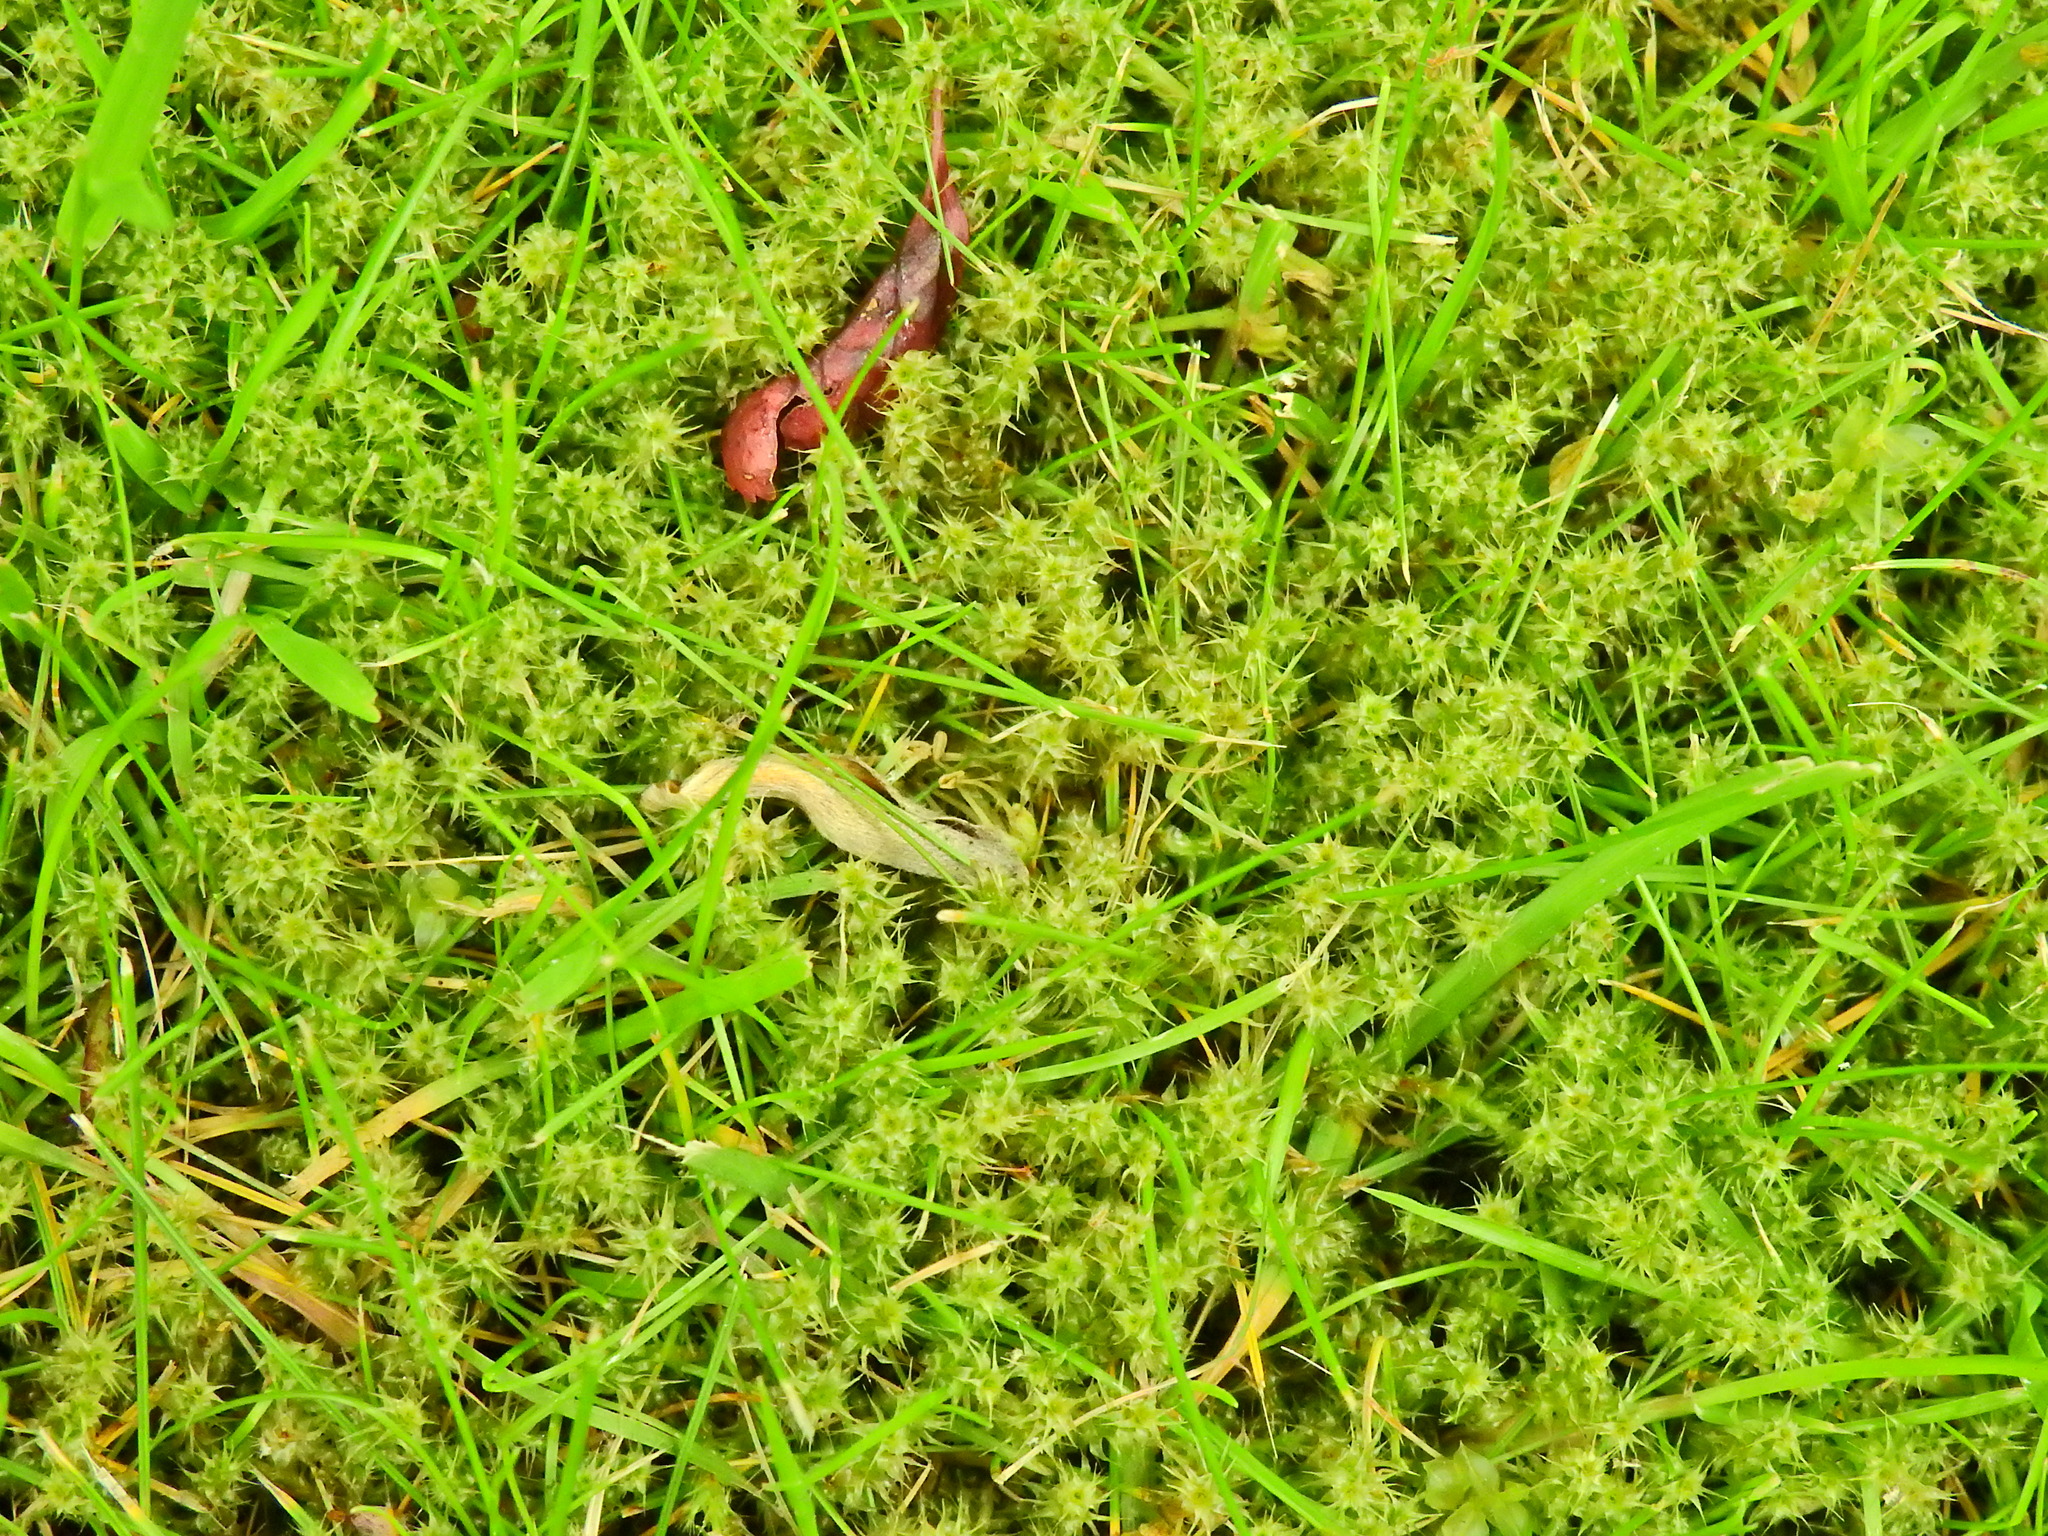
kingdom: Plantae
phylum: Bryophyta
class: Bryopsida
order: Hypnales
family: Hylocomiaceae
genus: Rhytidiadelphus
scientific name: Rhytidiadelphus squarrosus
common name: Springy turf-moss
